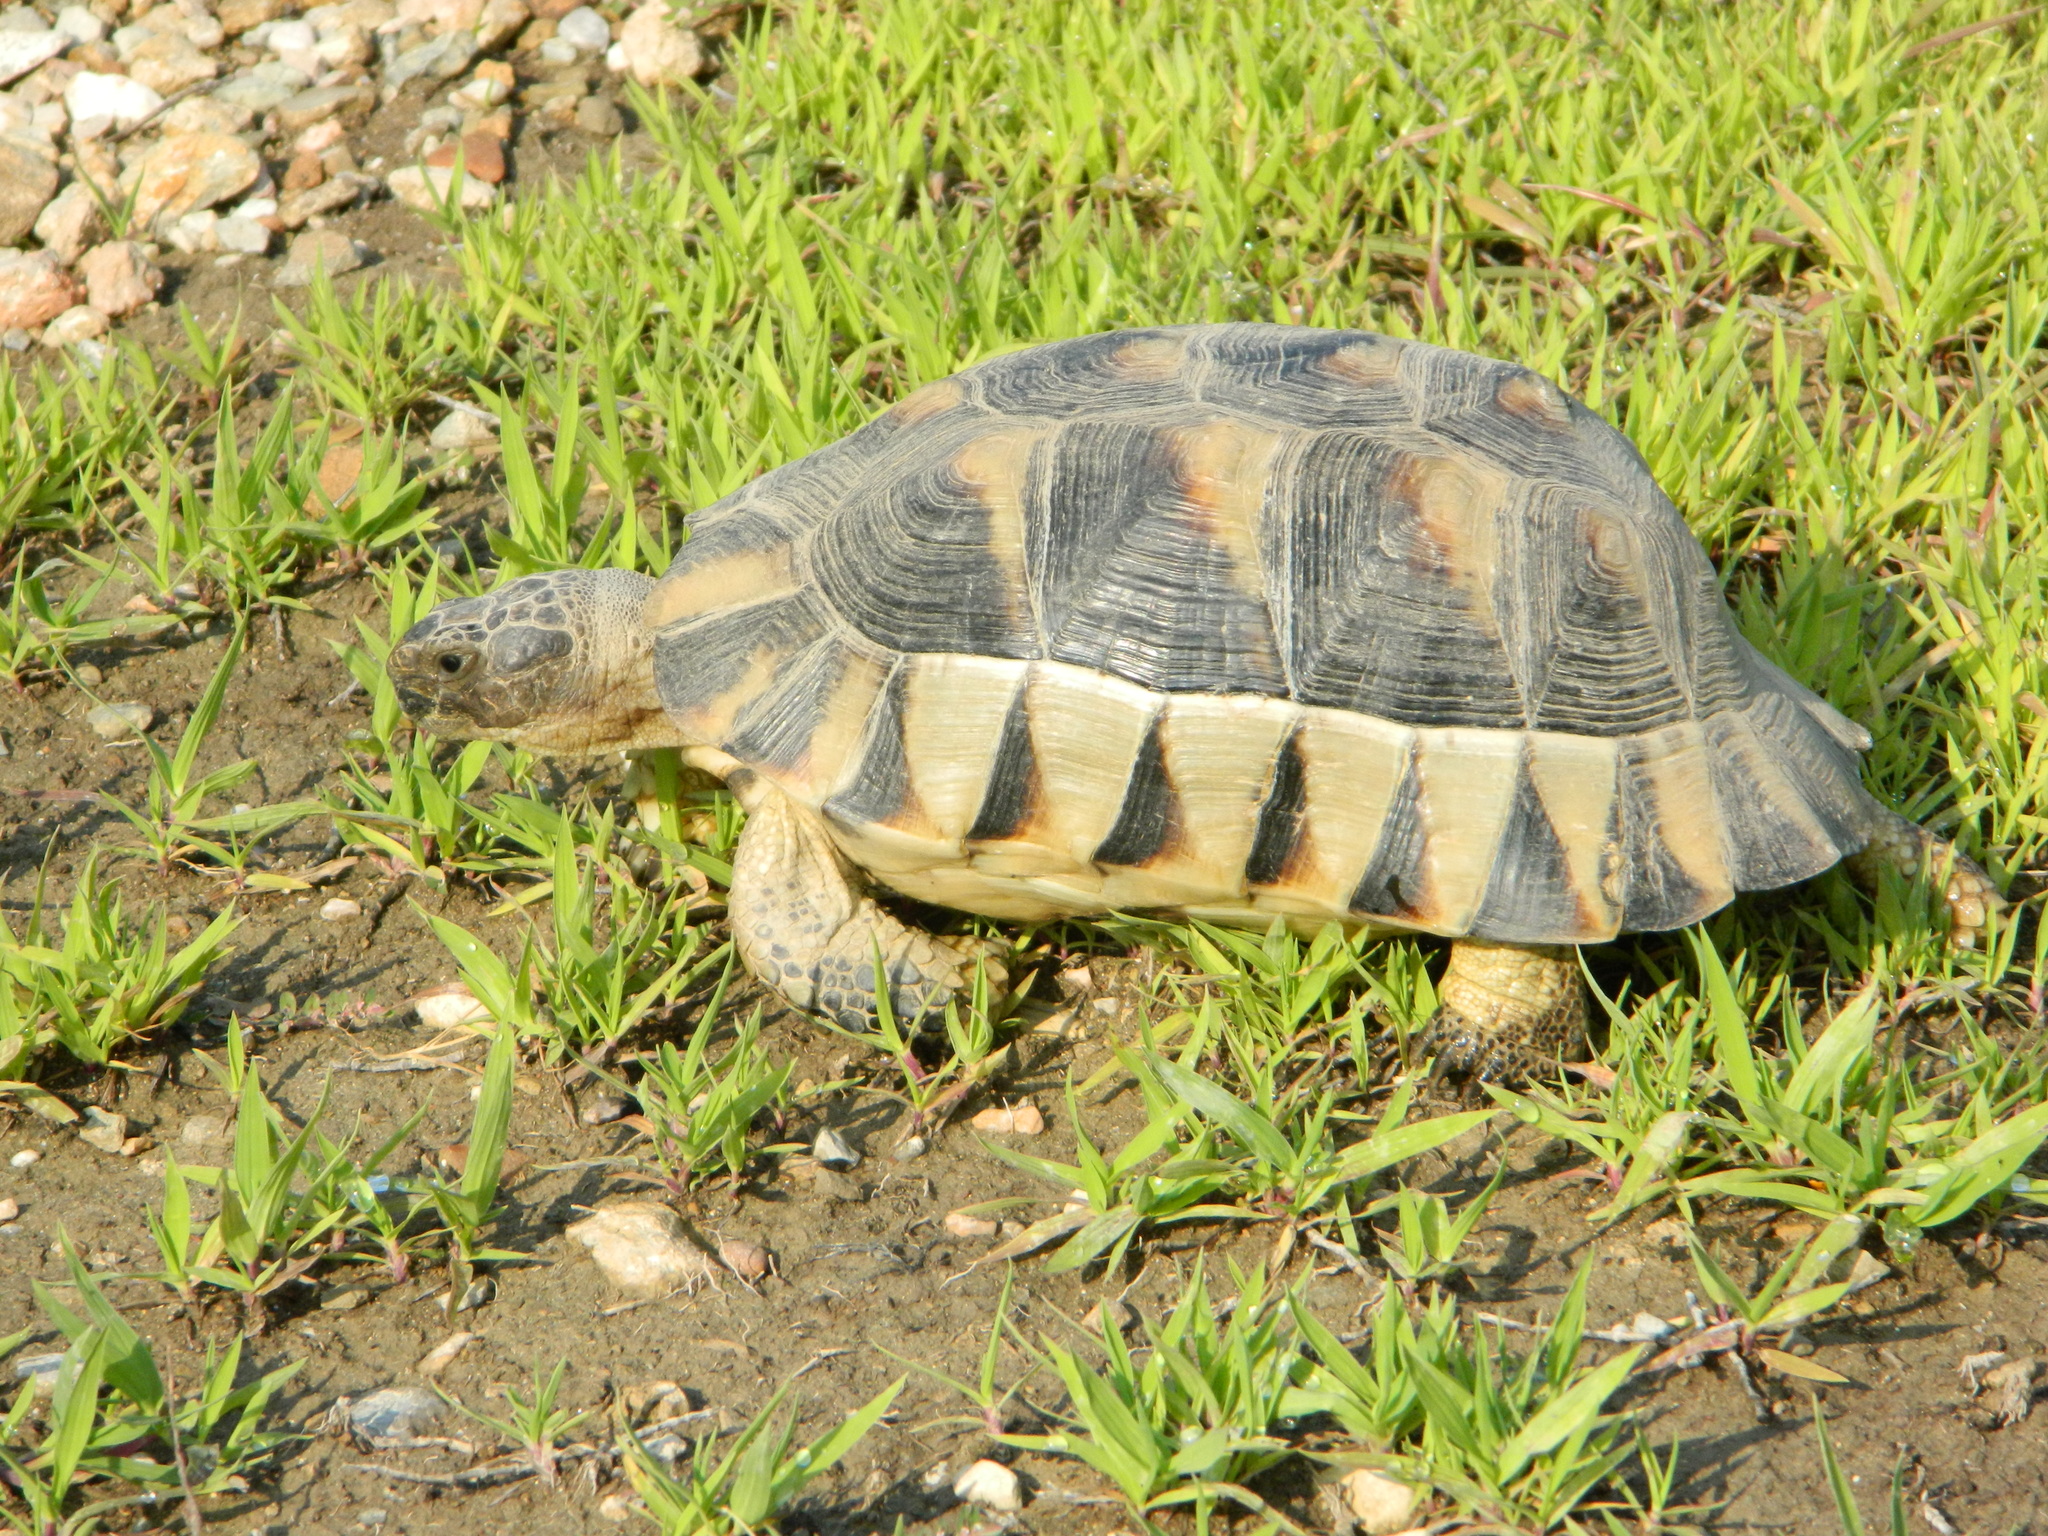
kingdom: Animalia
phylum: Chordata
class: Testudines
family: Testudinidae
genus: Testudo
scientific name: Testudo marginata
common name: Marginated tortoise
